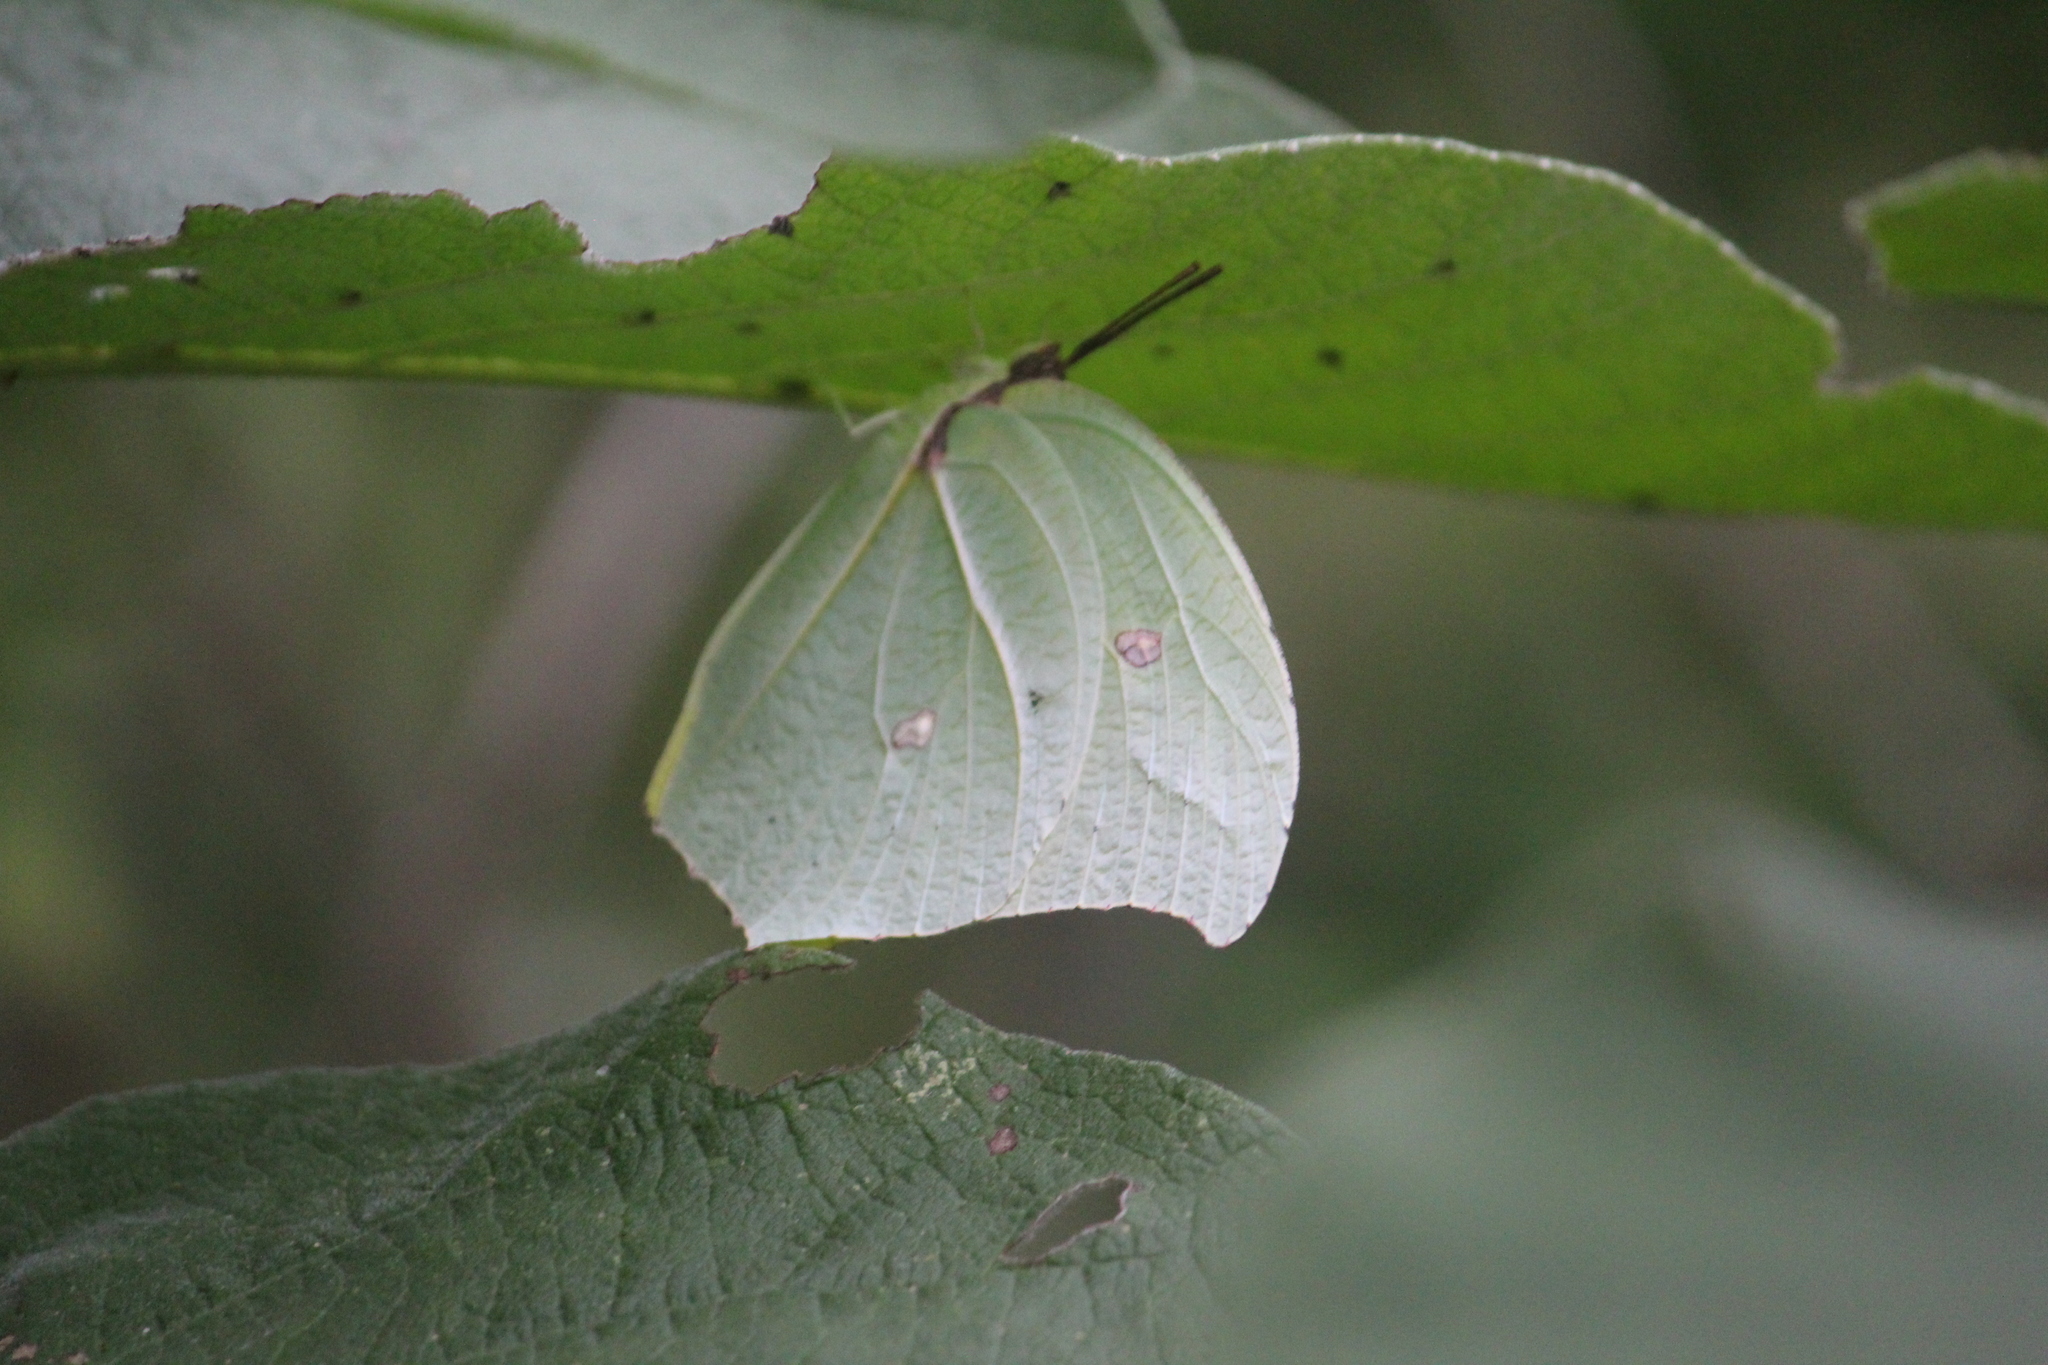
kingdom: Animalia
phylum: Arthropoda
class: Insecta
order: Lepidoptera
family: Pieridae
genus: Anteos
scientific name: Anteos maerula
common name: Angled sulphur
